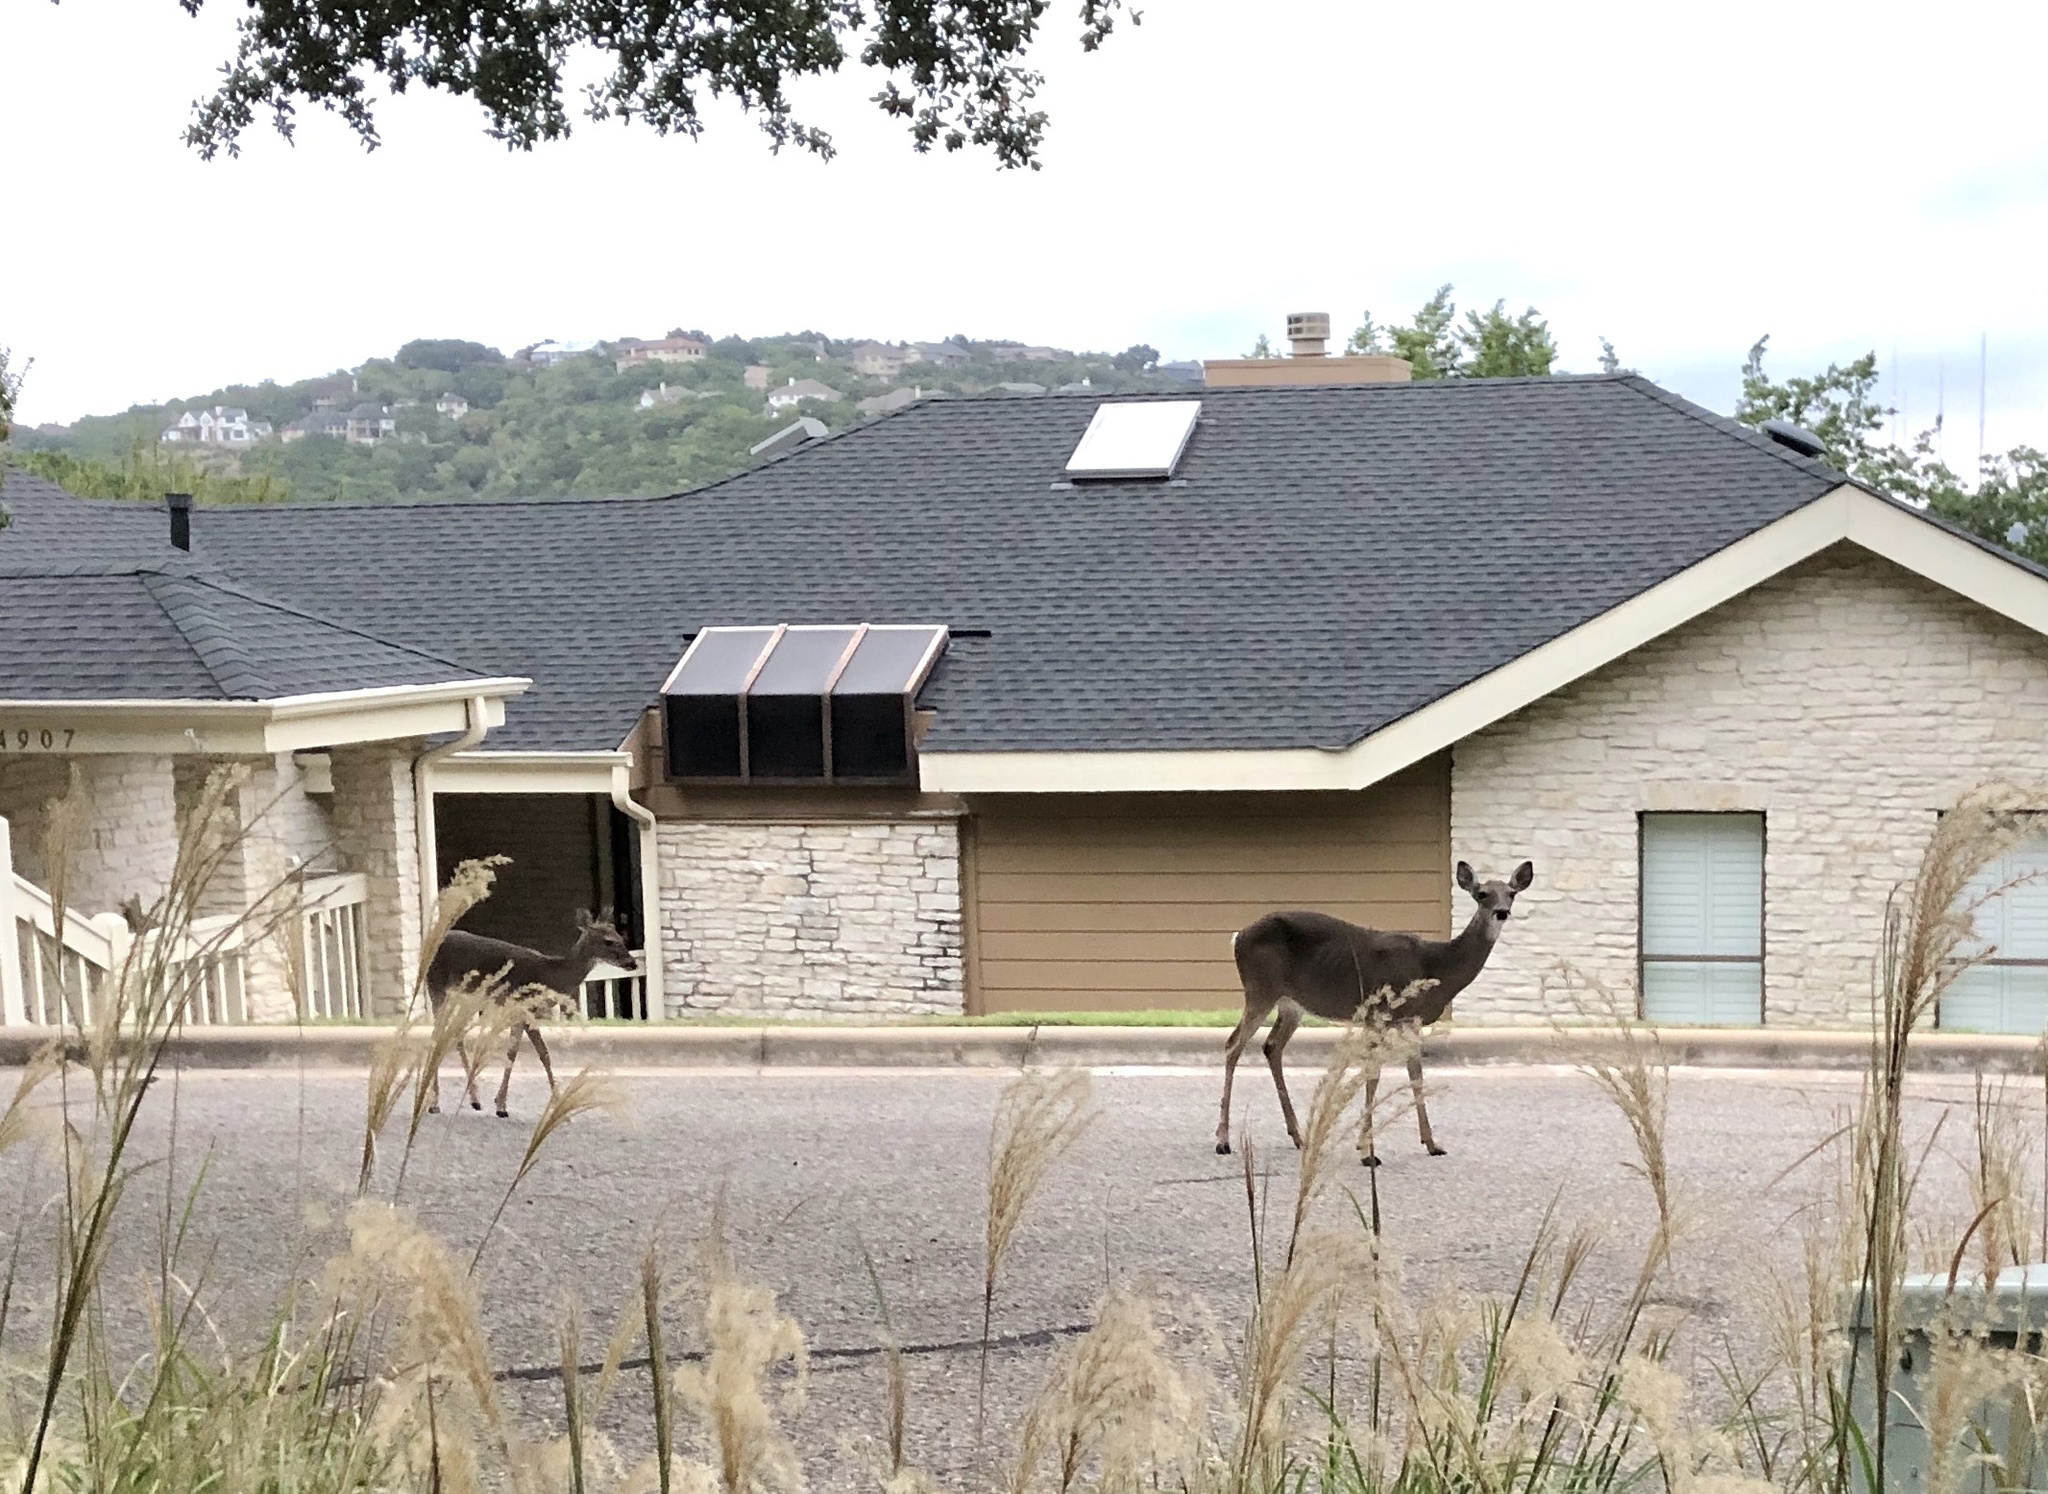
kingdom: Animalia
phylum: Chordata
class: Mammalia
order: Artiodactyla
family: Cervidae
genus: Odocoileus
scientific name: Odocoileus virginianus
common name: White-tailed deer
